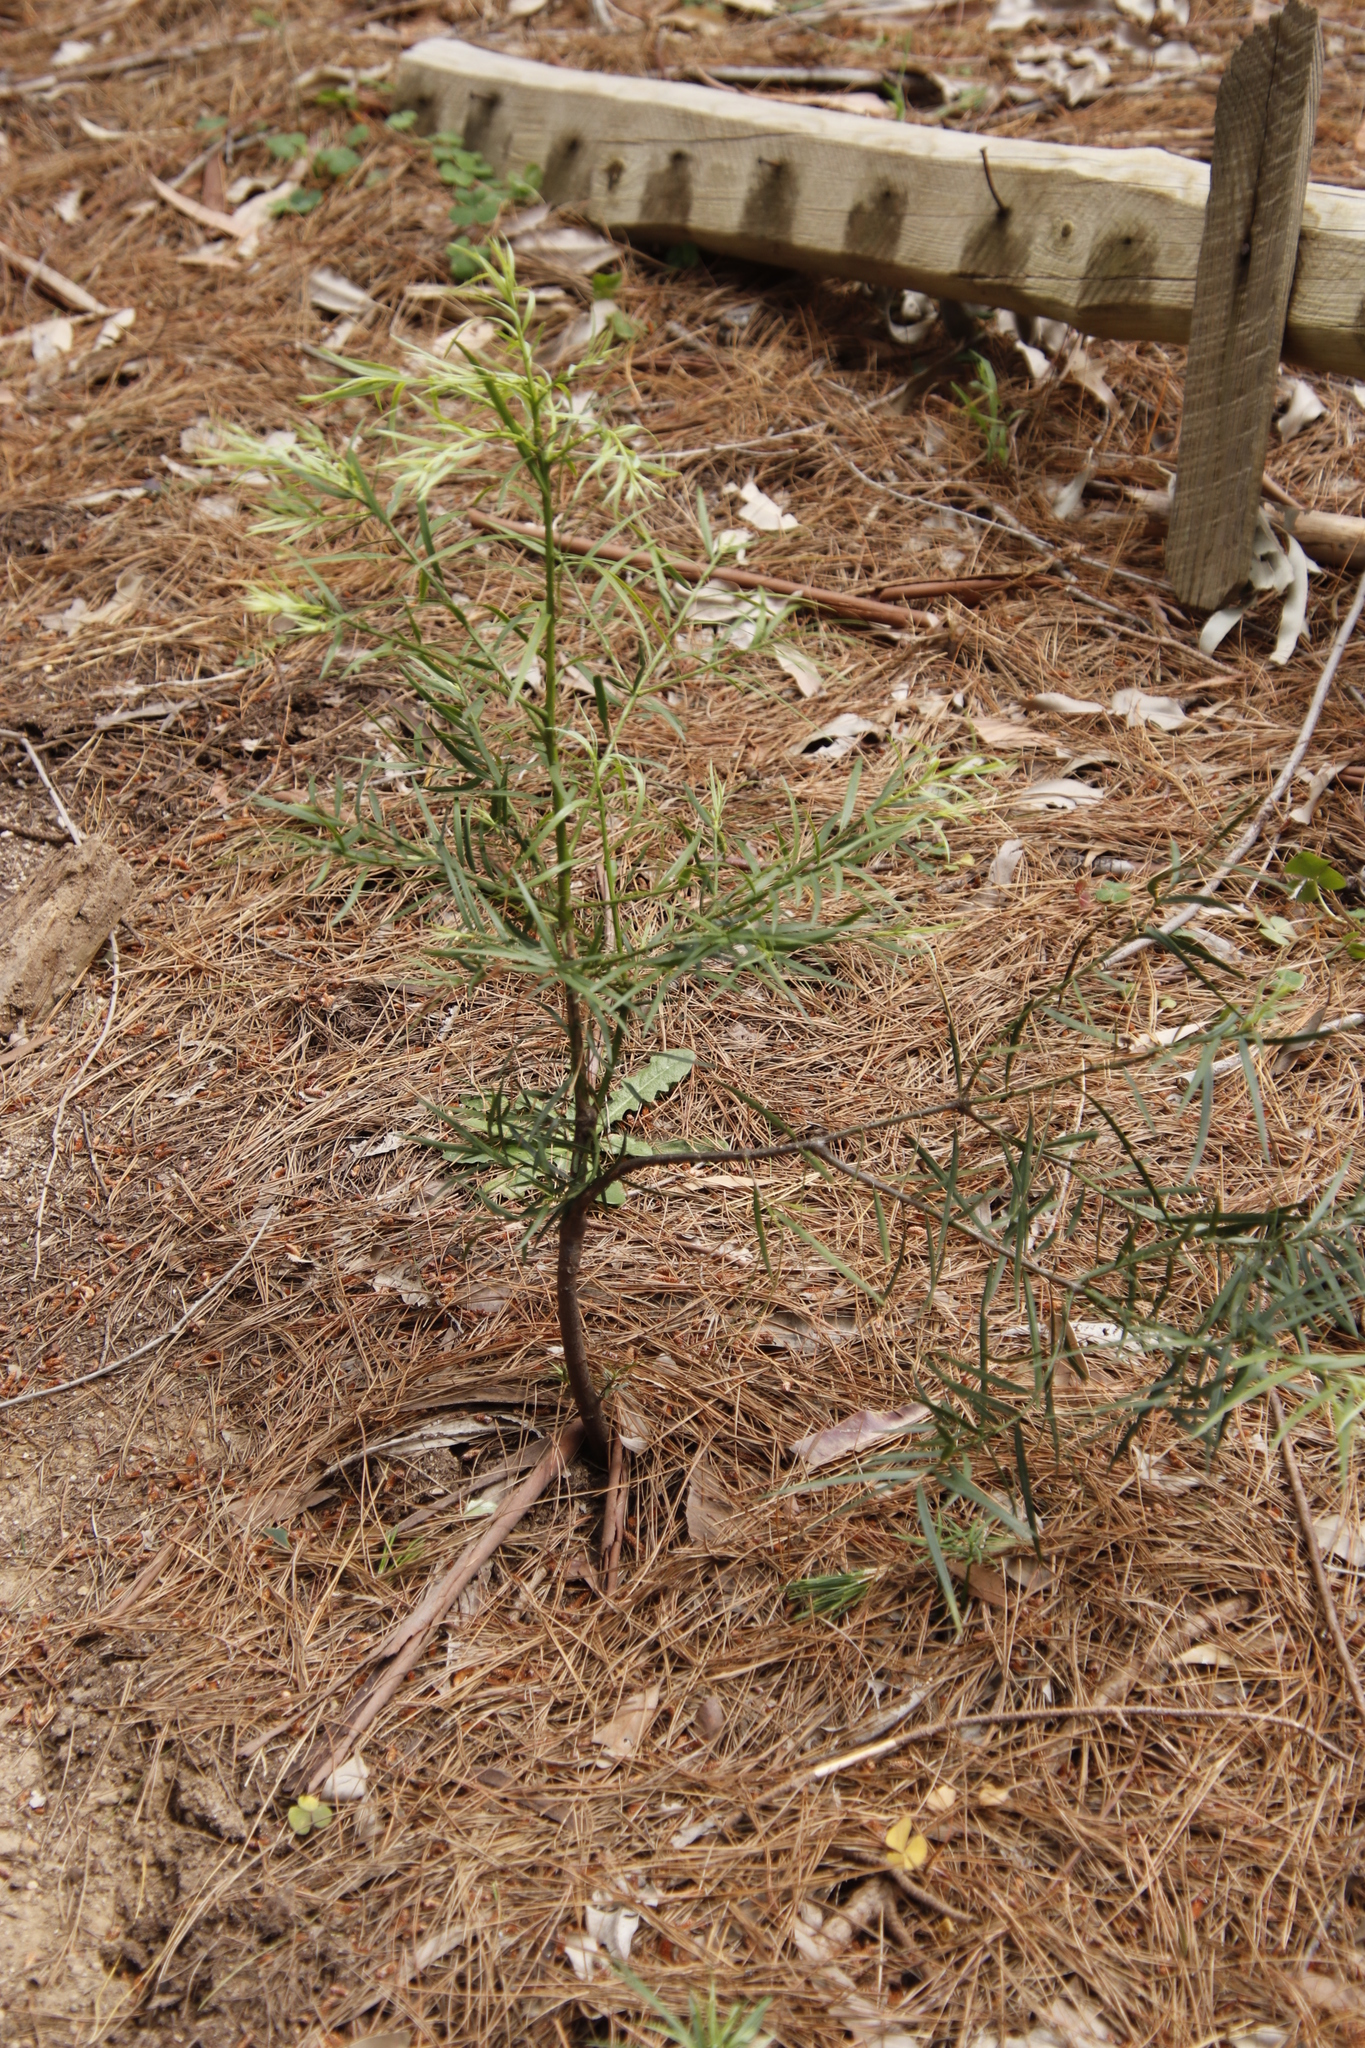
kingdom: Plantae
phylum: Tracheophyta
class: Pinopsida
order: Pinales
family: Podocarpaceae
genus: Afrocarpus
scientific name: Afrocarpus falcatus
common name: Bastard yellowwood
